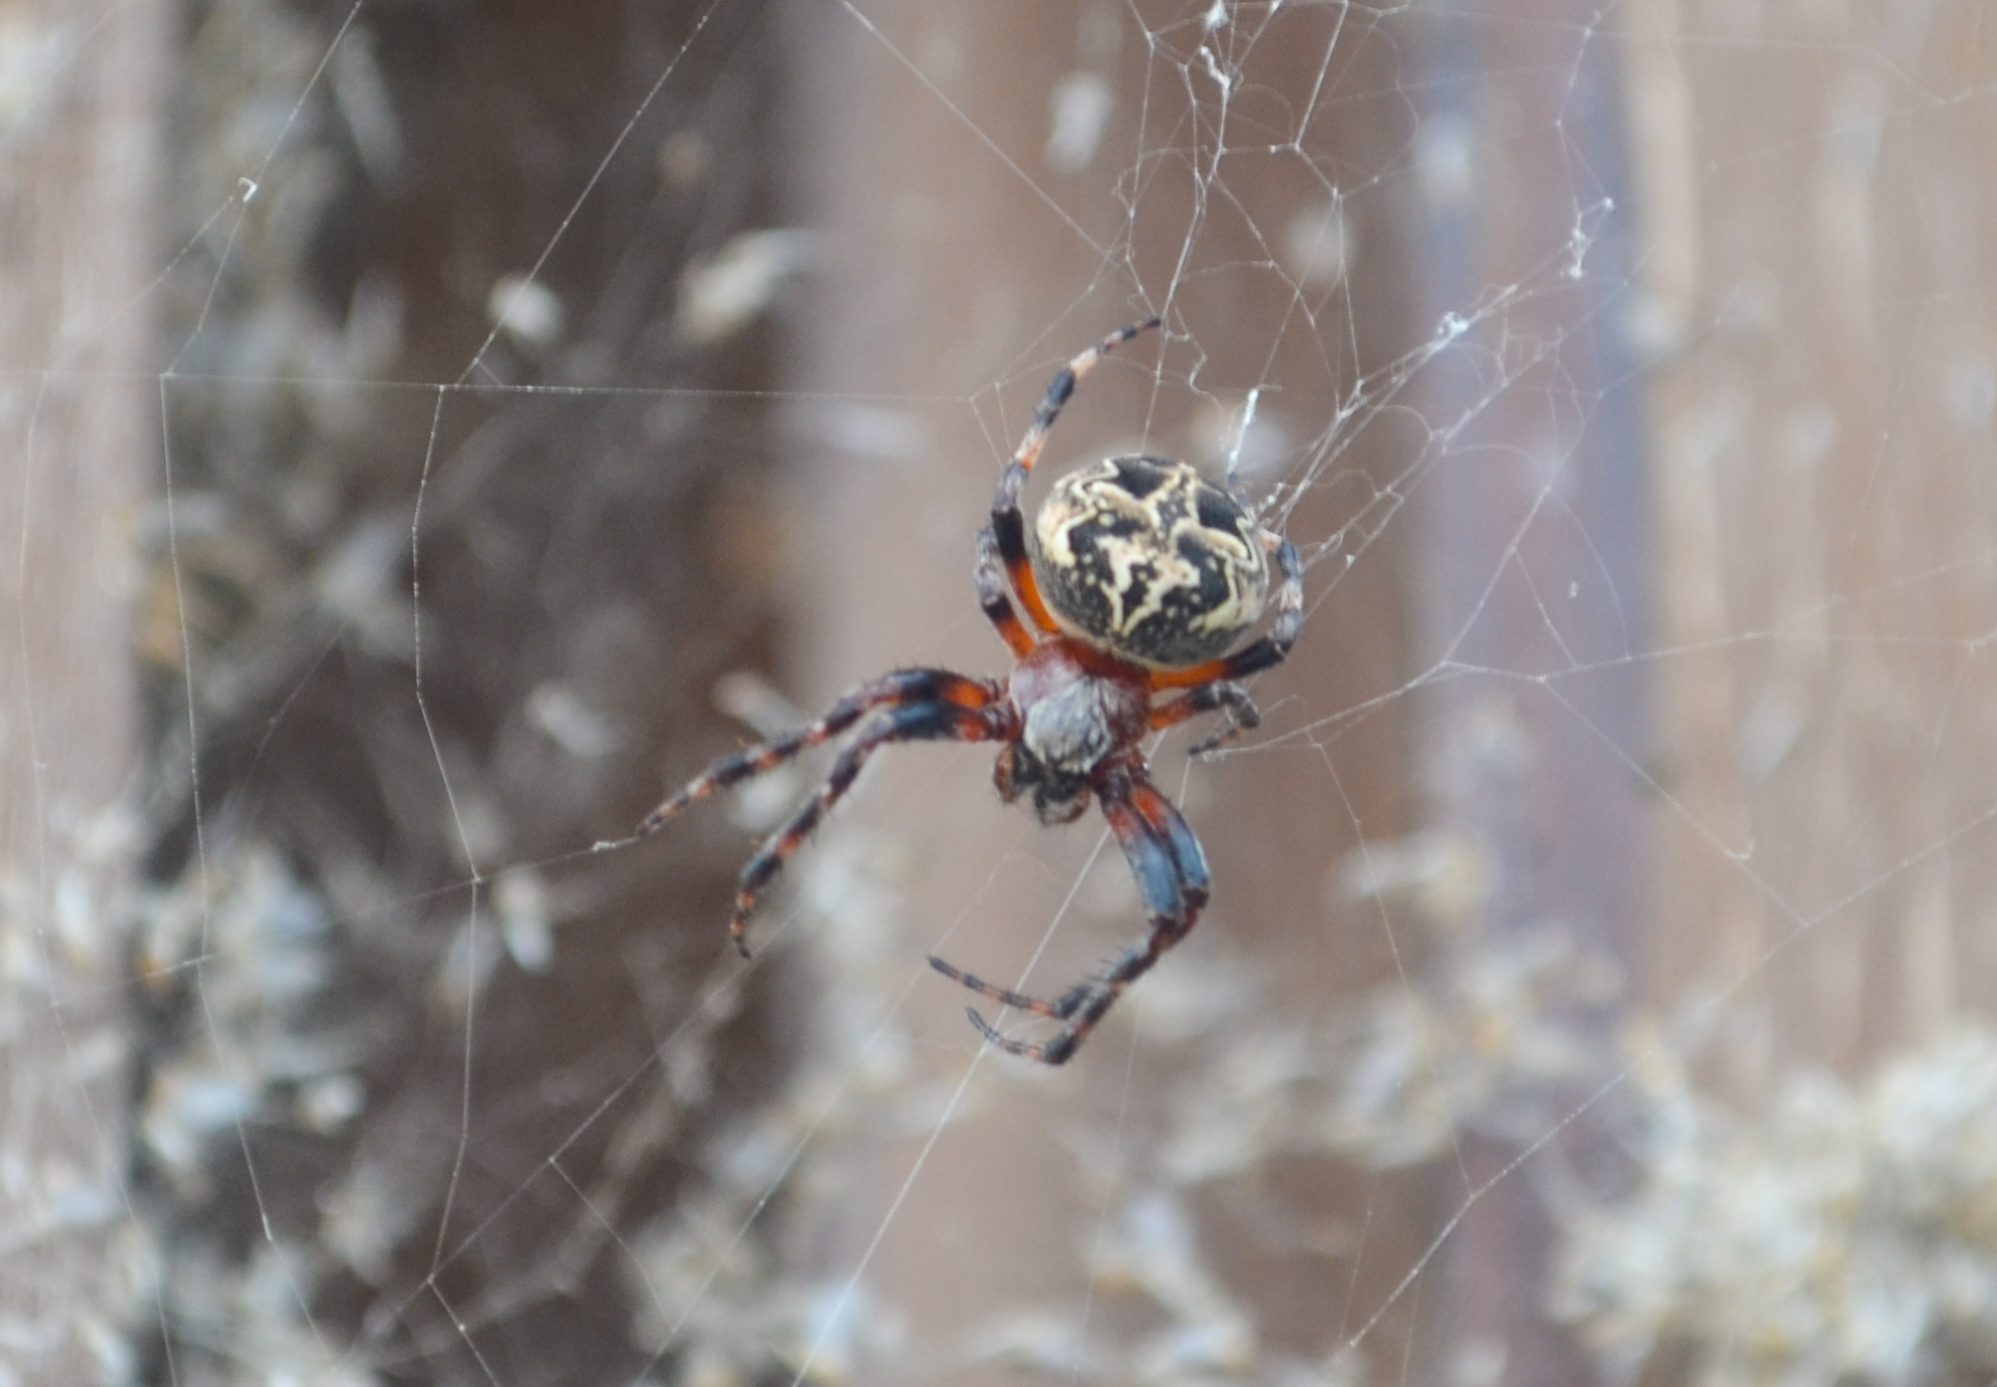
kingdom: Animalia
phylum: Arthropoda
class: Arachnida
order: Araneae
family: Araneidae
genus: Larinioides
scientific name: Larinioides cornutus
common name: Furrow orbweaver
